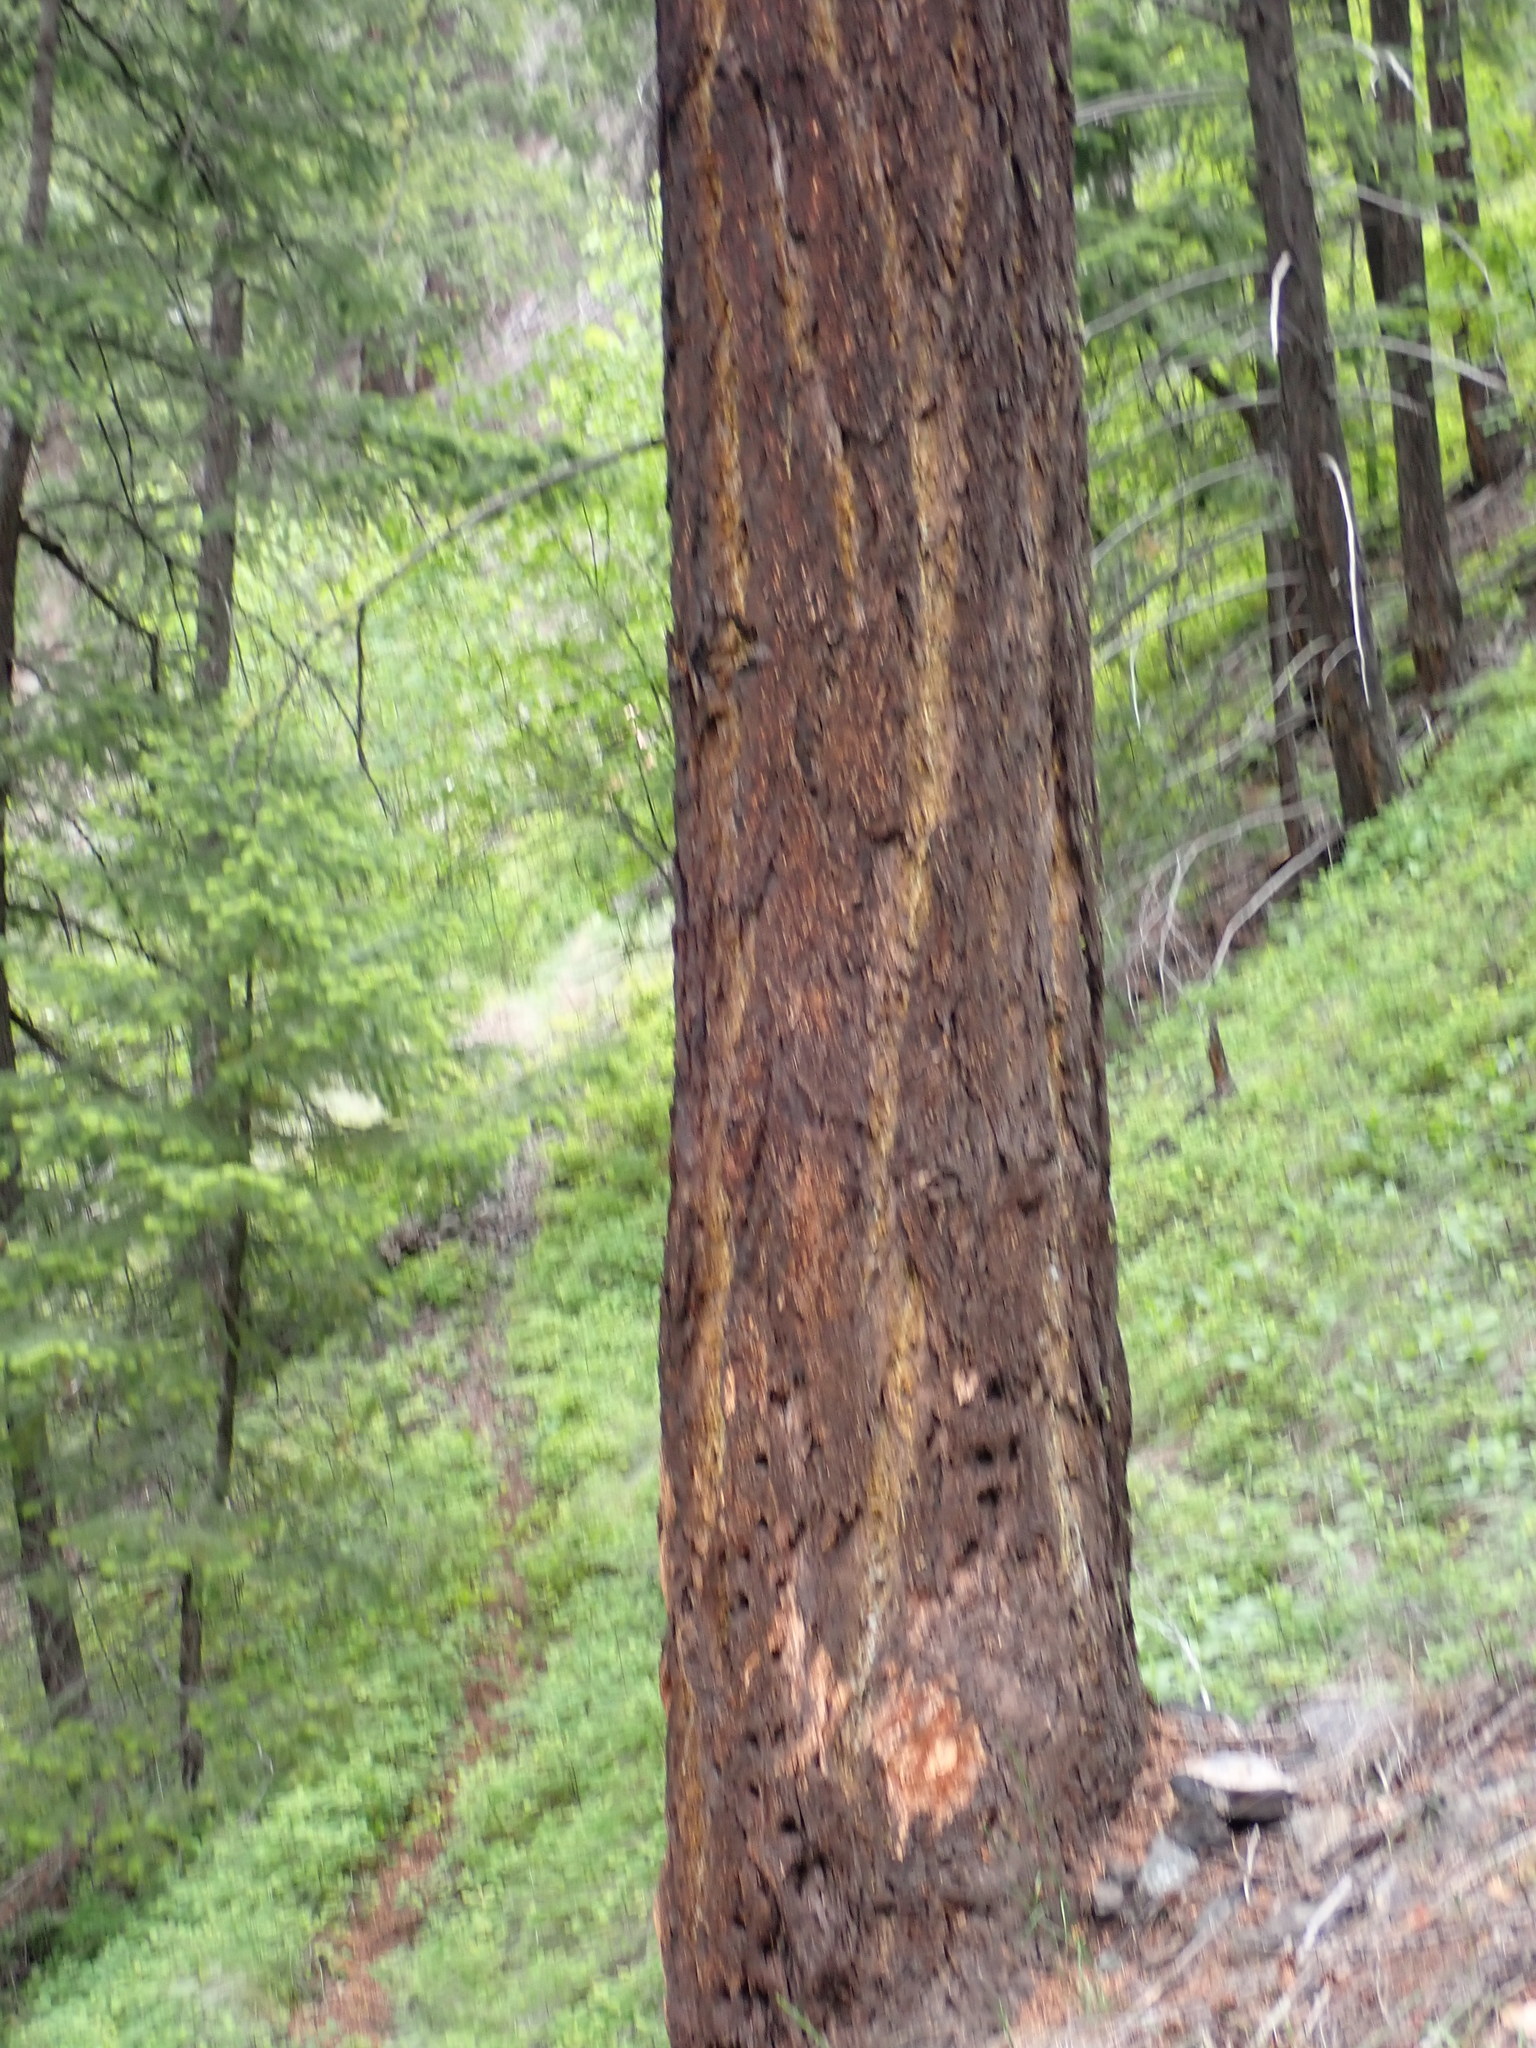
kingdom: Plantae
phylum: Tracheophyta
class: Pinopsida
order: Pinales
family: Pinaceae
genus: Pseudotsuga
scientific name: Pseudotsuga menziesii
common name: Douglas fir
